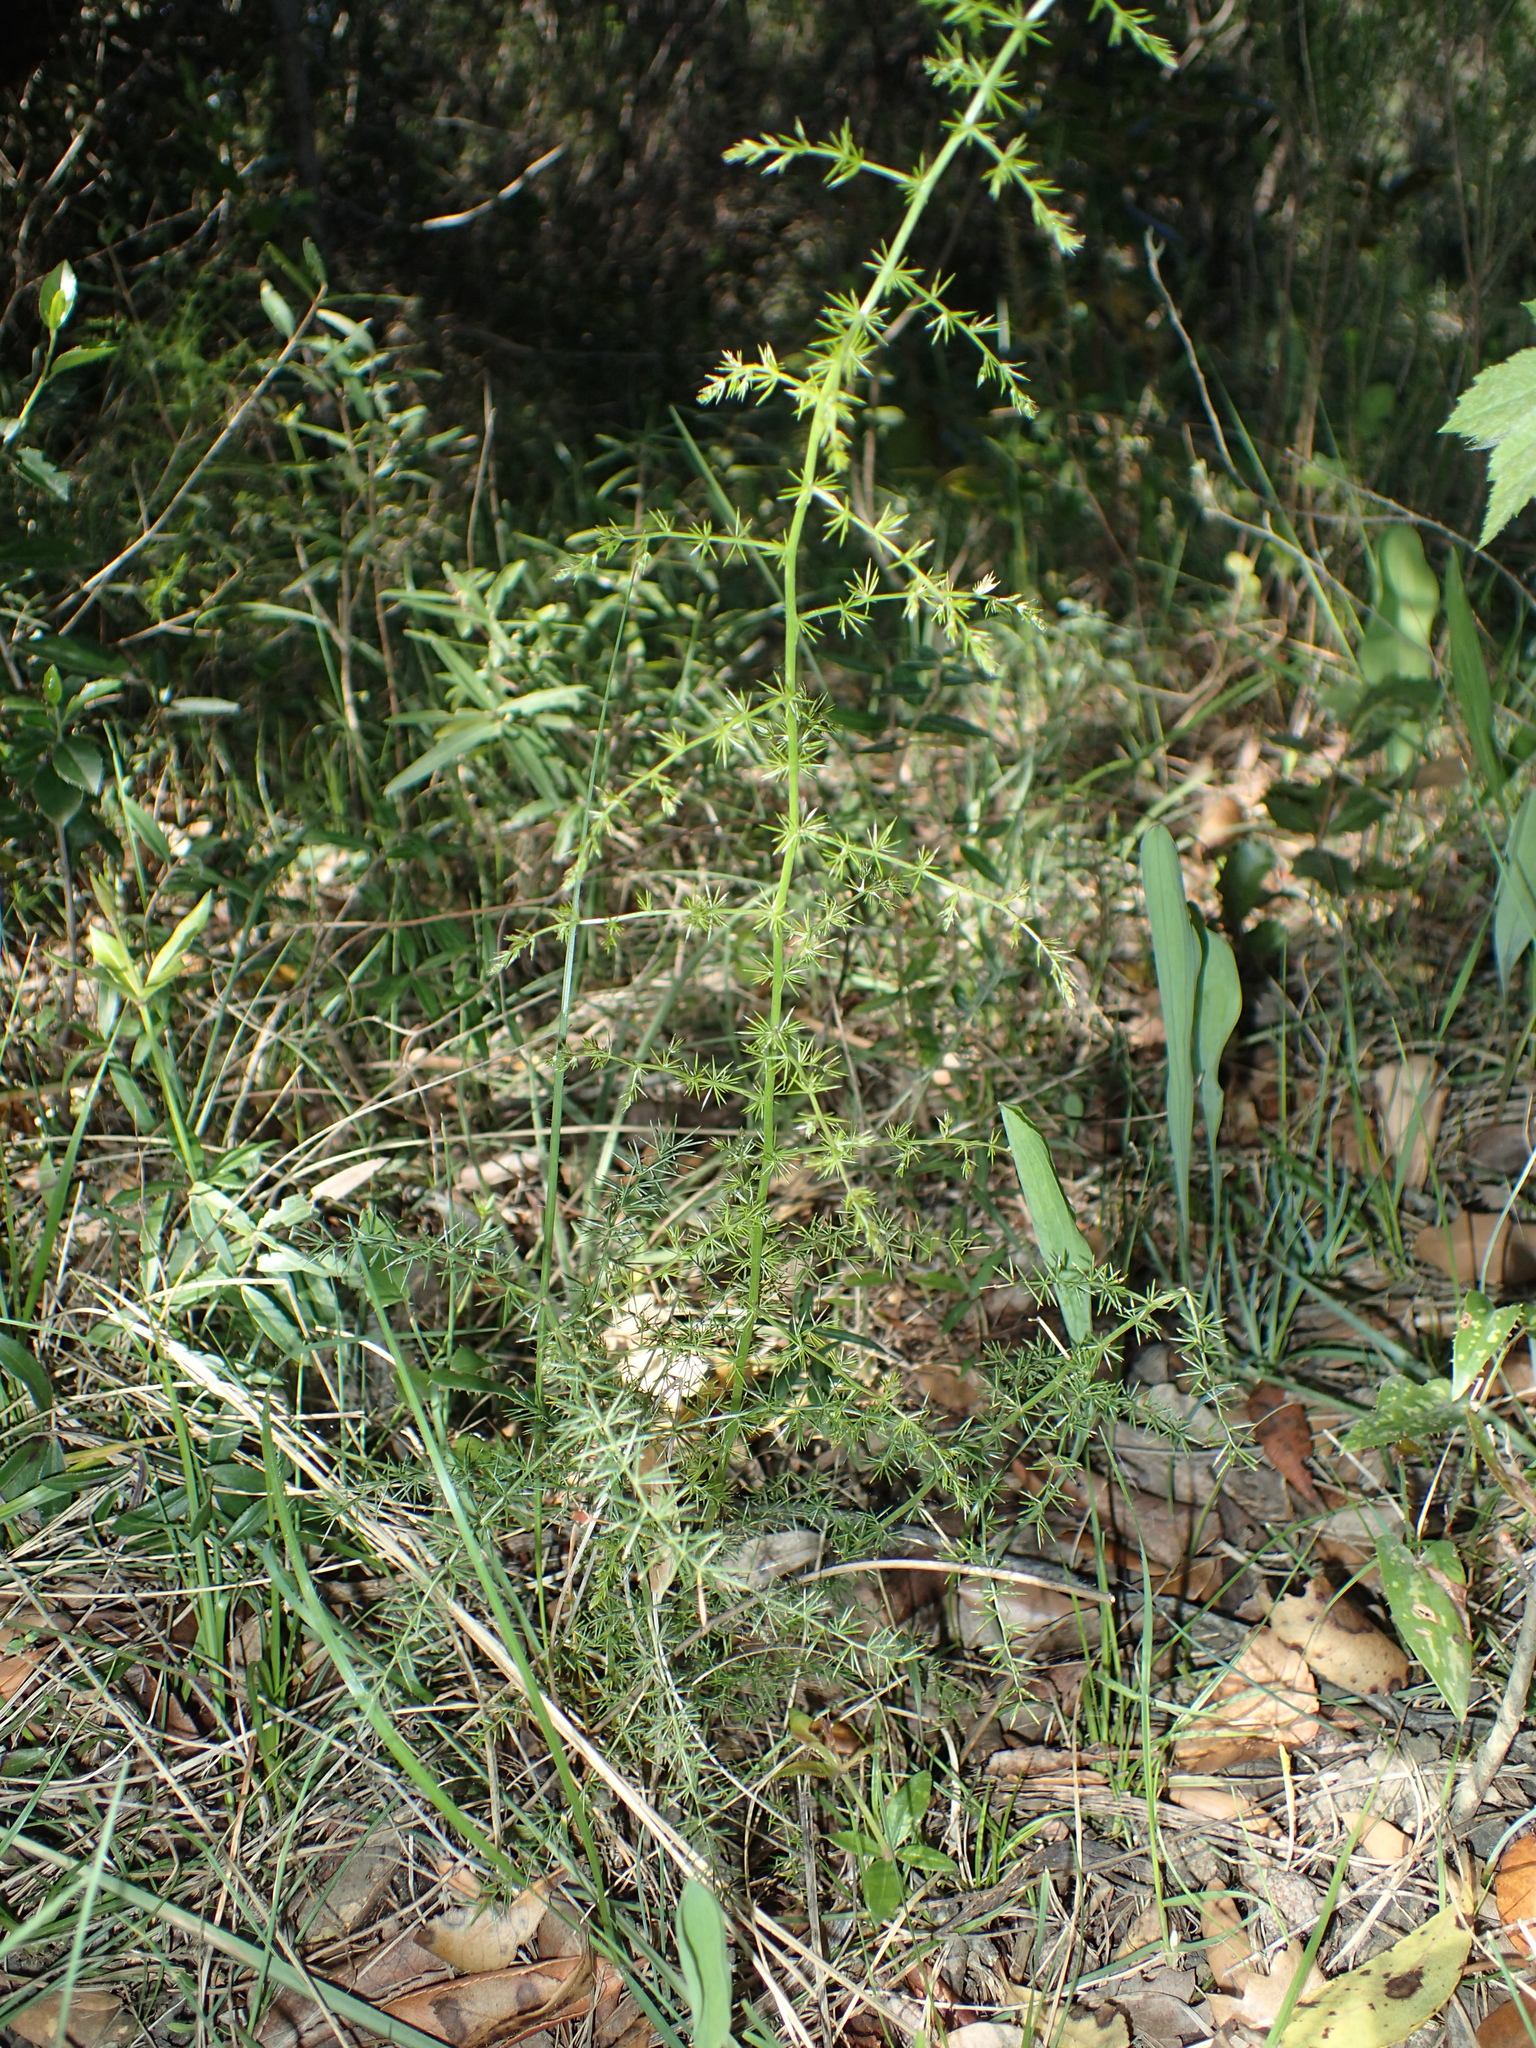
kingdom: Plantae
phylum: Tracheophyta
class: Liliopsida
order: Asparagales
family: Asparagaceae
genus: Asparagus
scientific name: Asparagus acutifolius
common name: Wild asparagus
